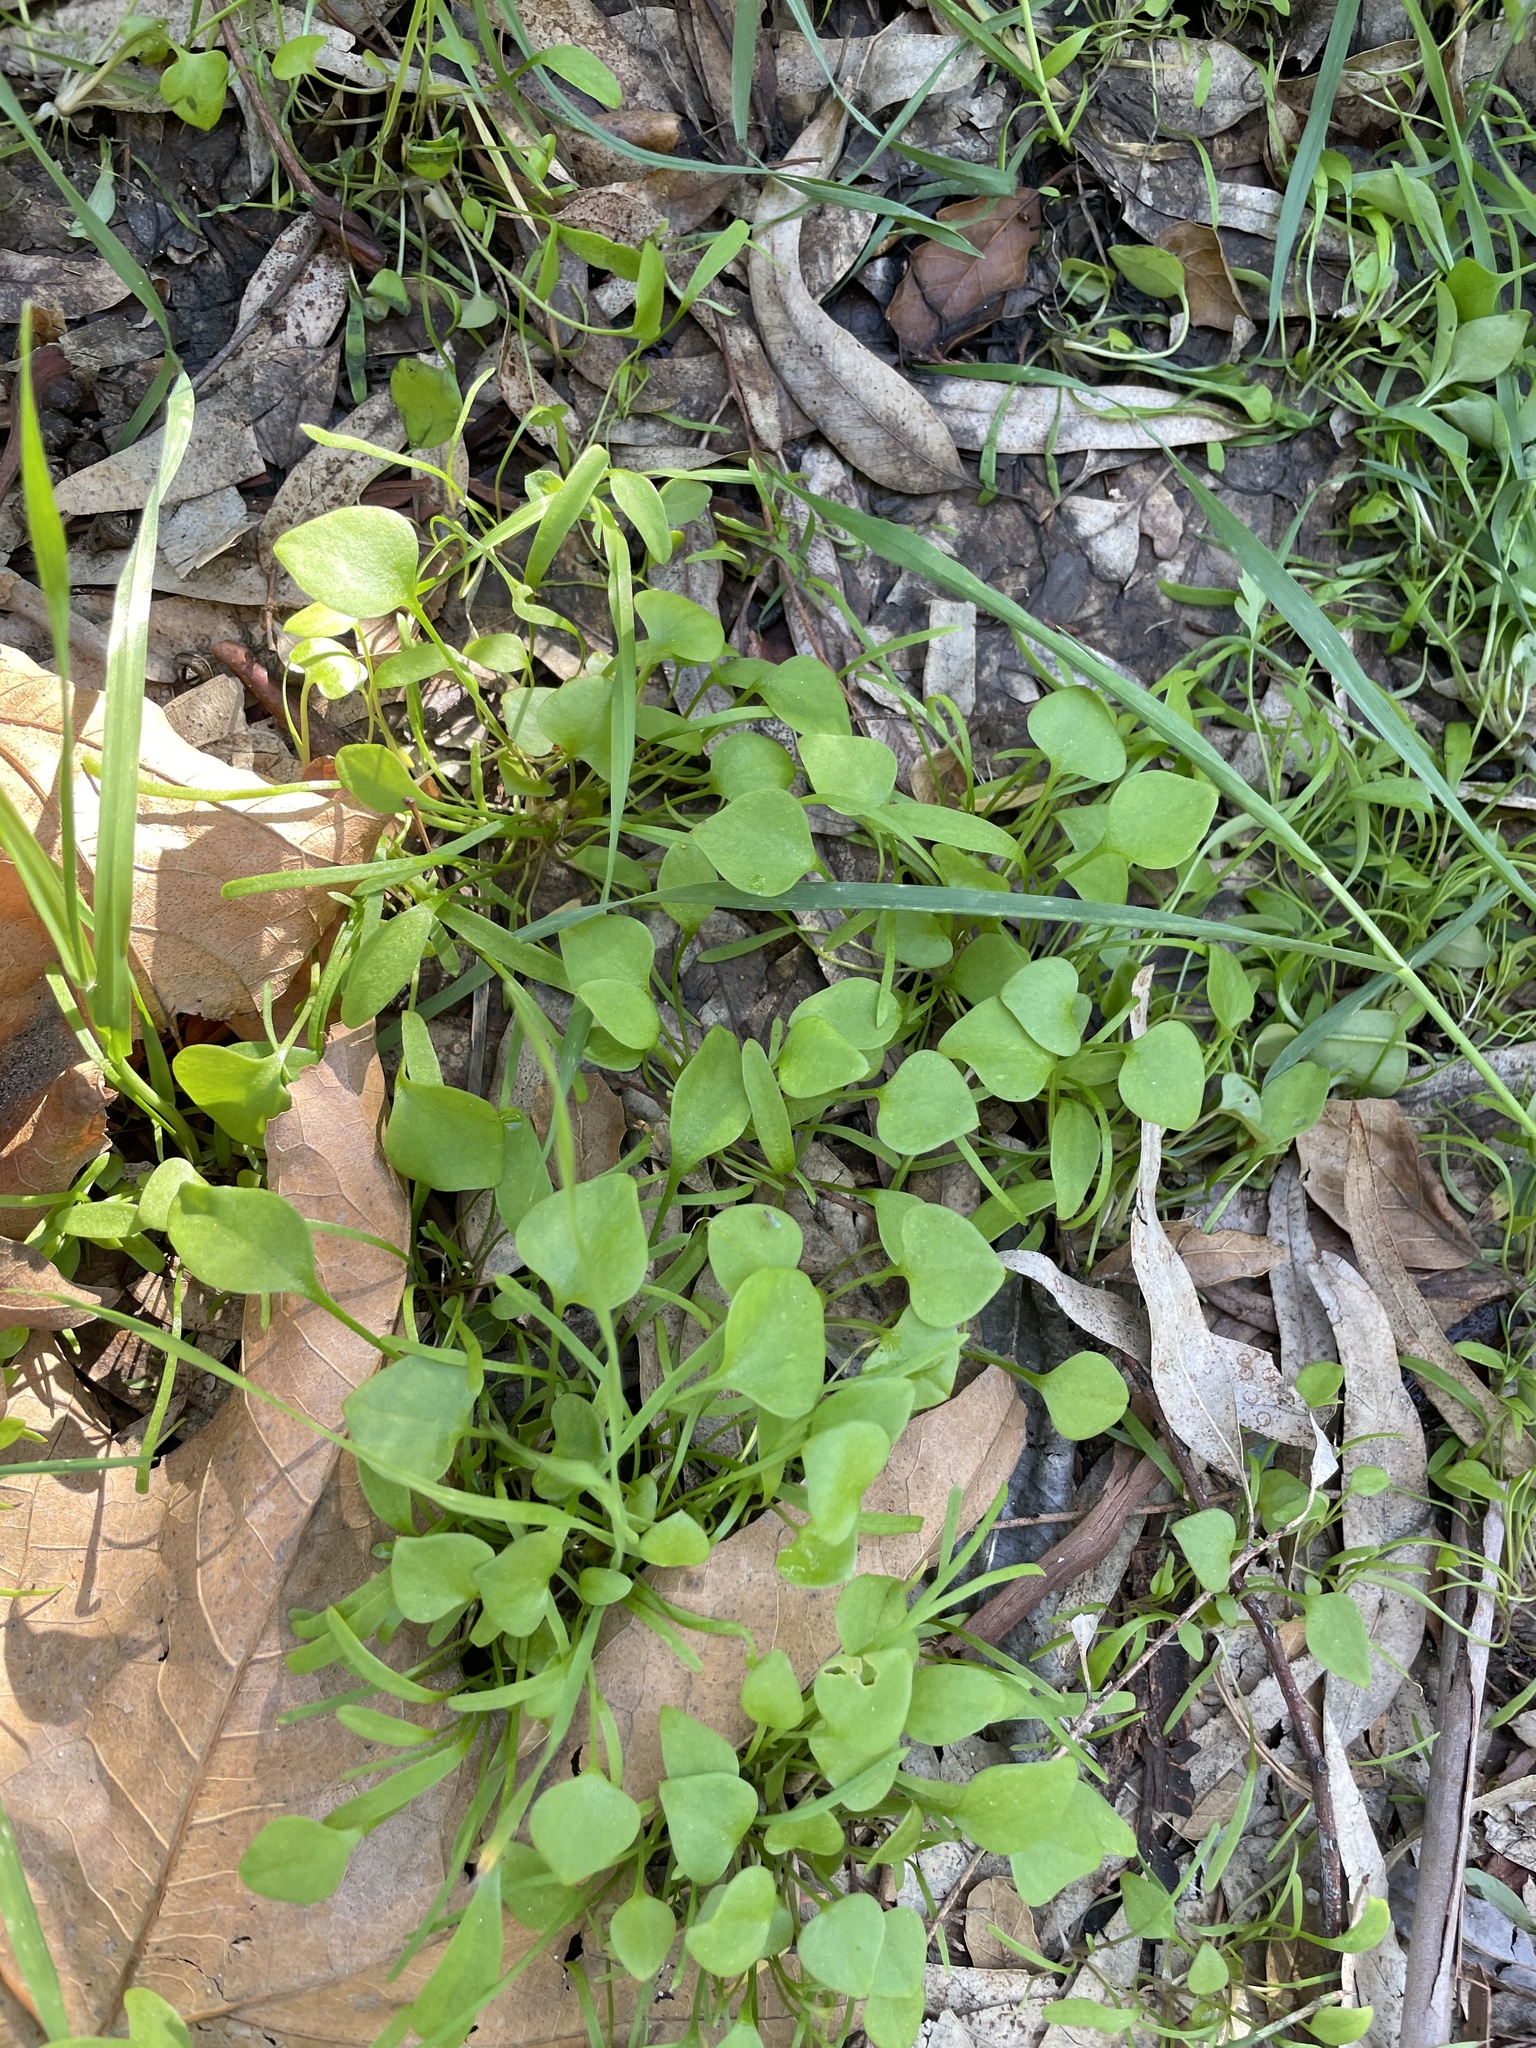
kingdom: Plantae
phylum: Tracheophyta
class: Magnoliopsida
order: Caryophyllales
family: Montiaceae
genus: Claytonia
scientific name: Claytonia perfoliata
